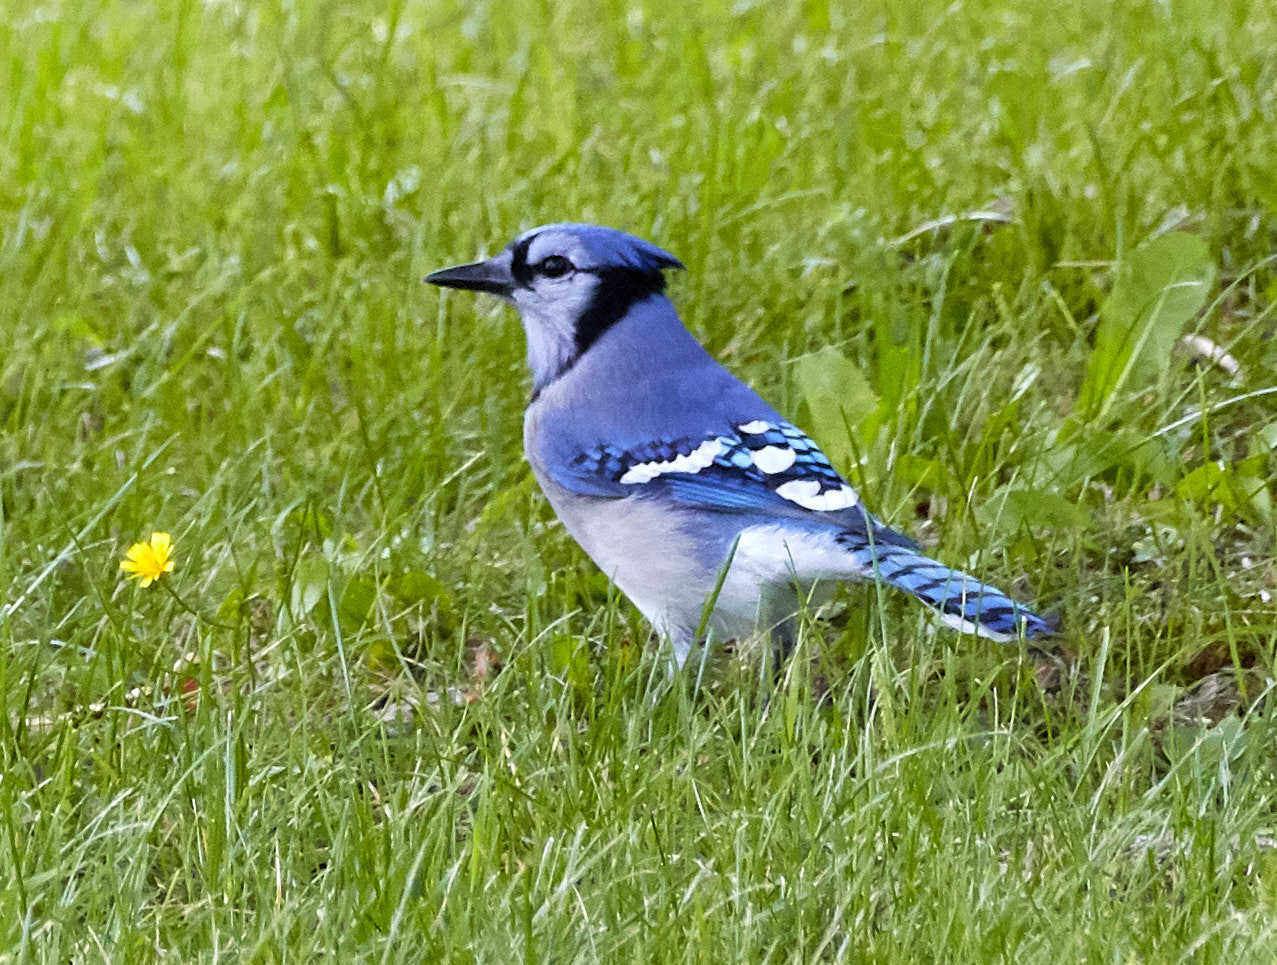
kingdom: Animalia
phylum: Chordata
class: Aves
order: Passeriformes
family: Corvidae
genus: Cyanocitta
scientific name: Cyanocitta cristata
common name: Blue jay
